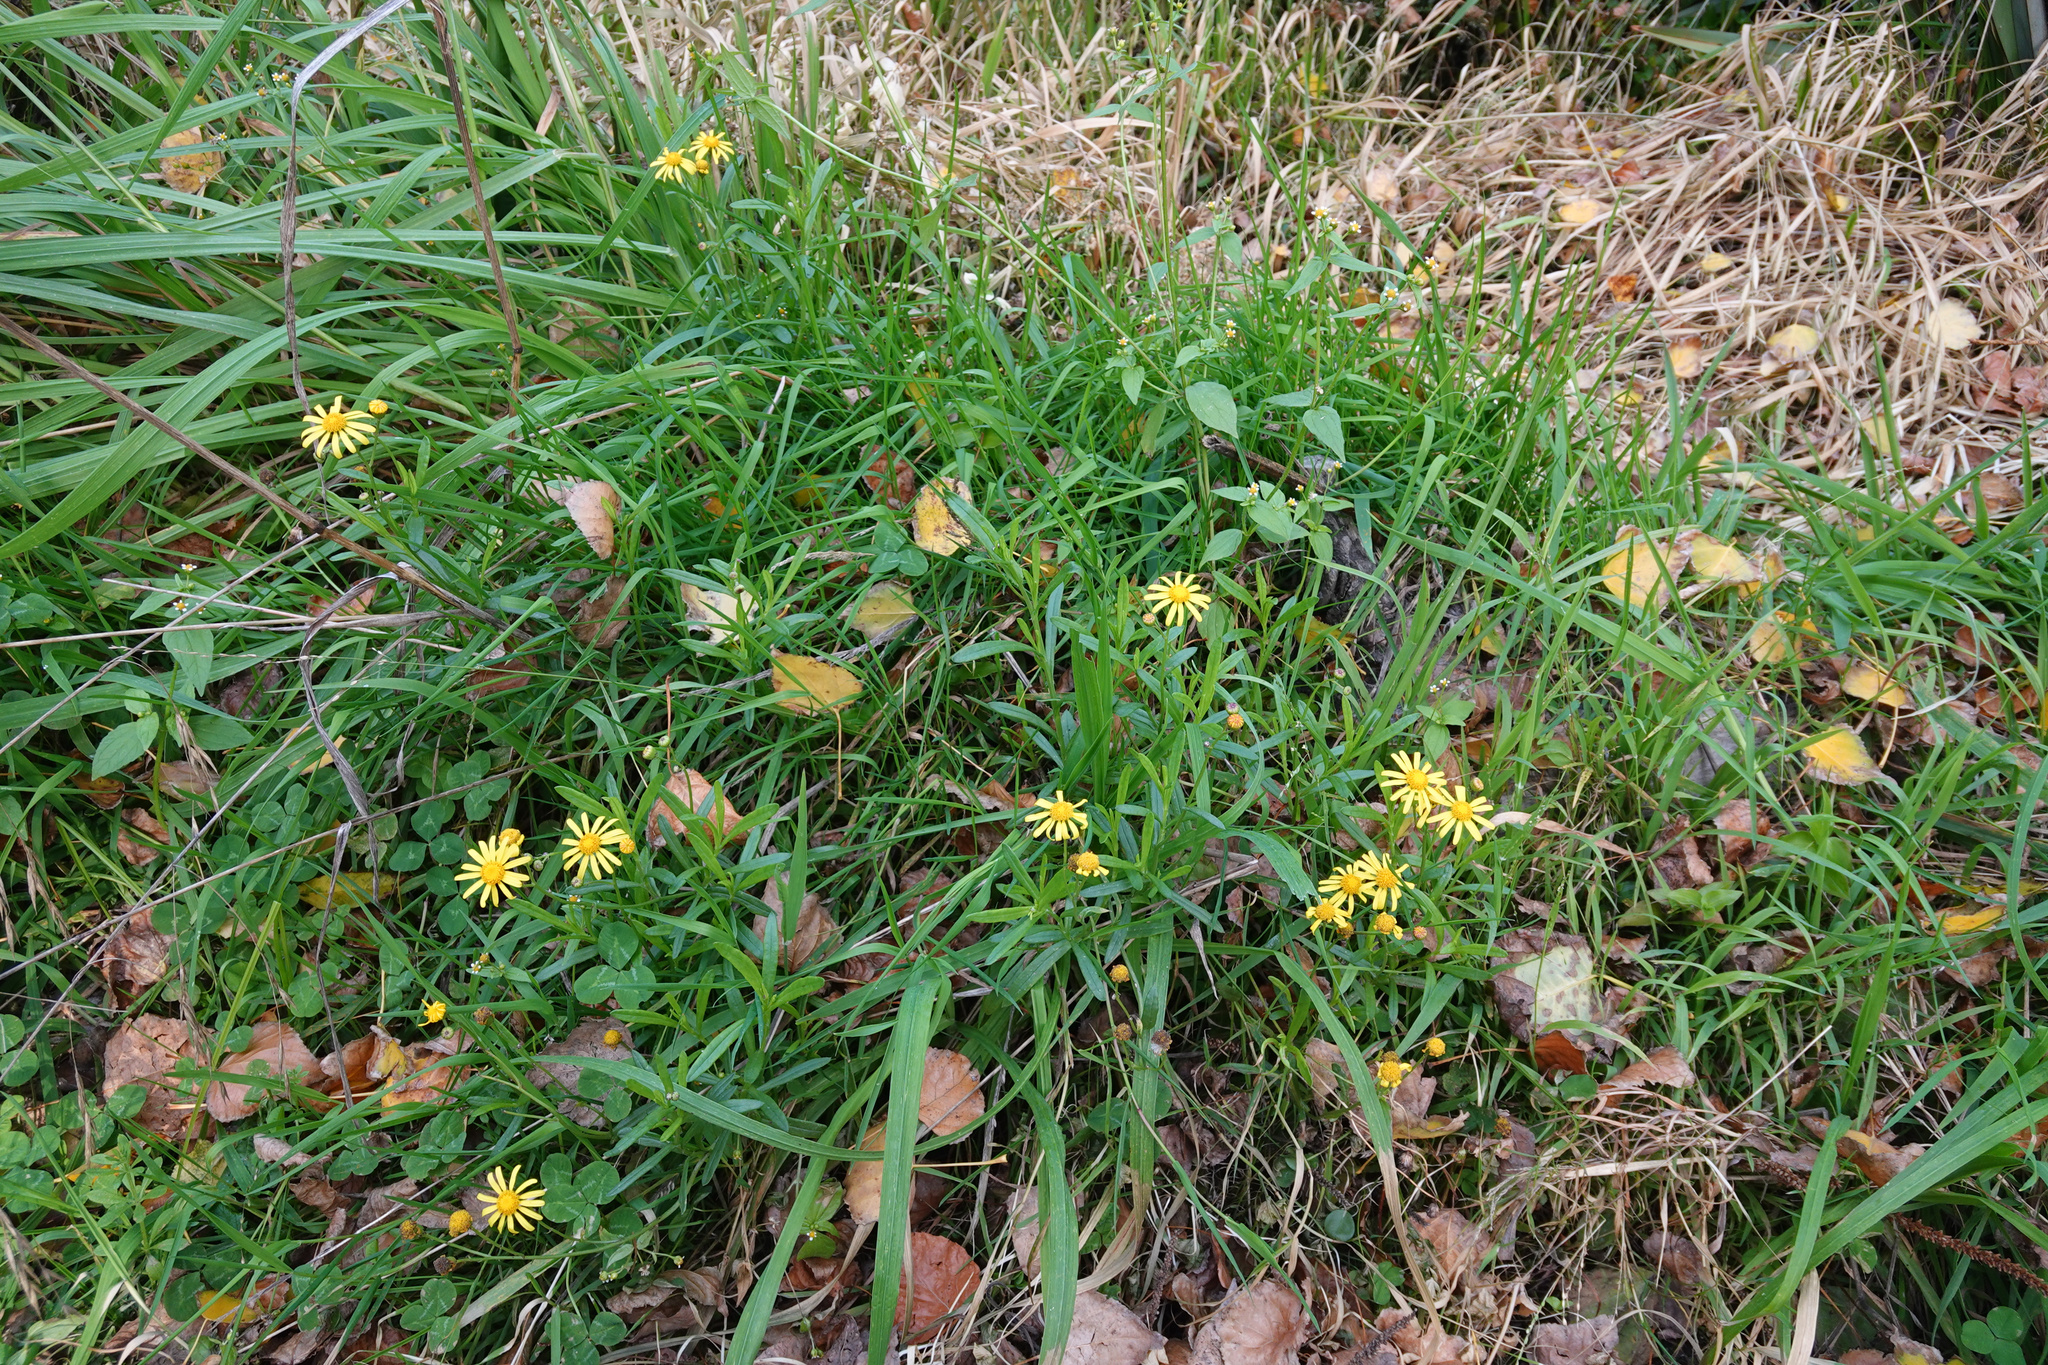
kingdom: Plantae
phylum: Tracheophyta
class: Magnoliopsida
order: Asterales
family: Asteraceae
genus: Senecio
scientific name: Senecio skirrhodon
